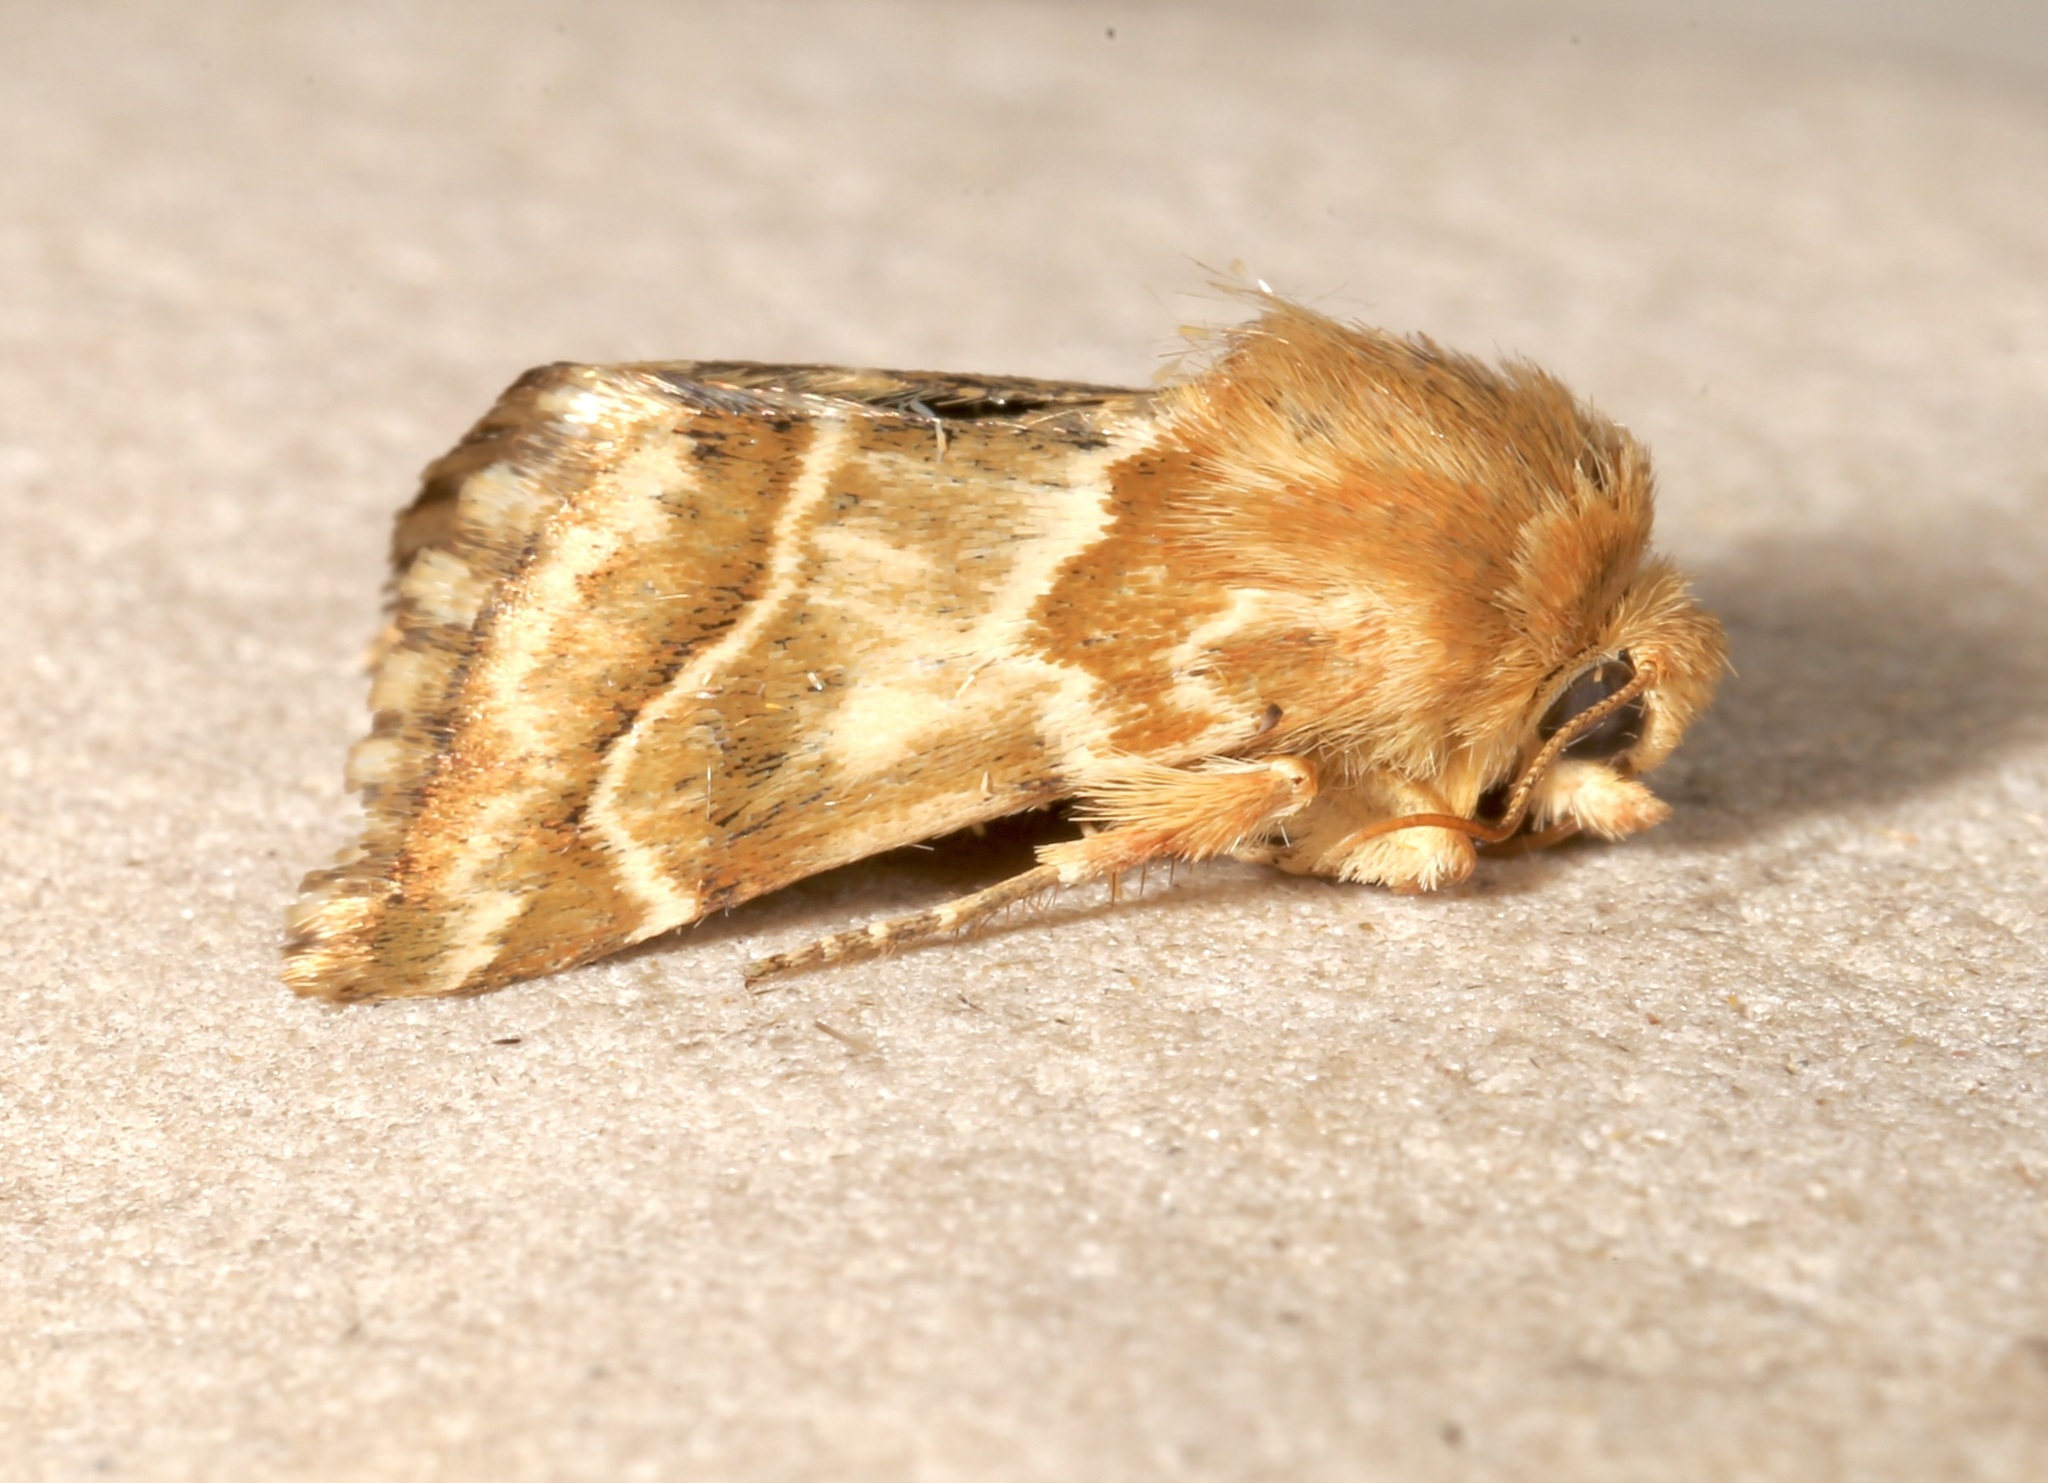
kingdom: Animalia
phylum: Arthropoda
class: Insecta
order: Lepidoptera
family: Noctuidae
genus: Schinia
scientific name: Schinia errans
